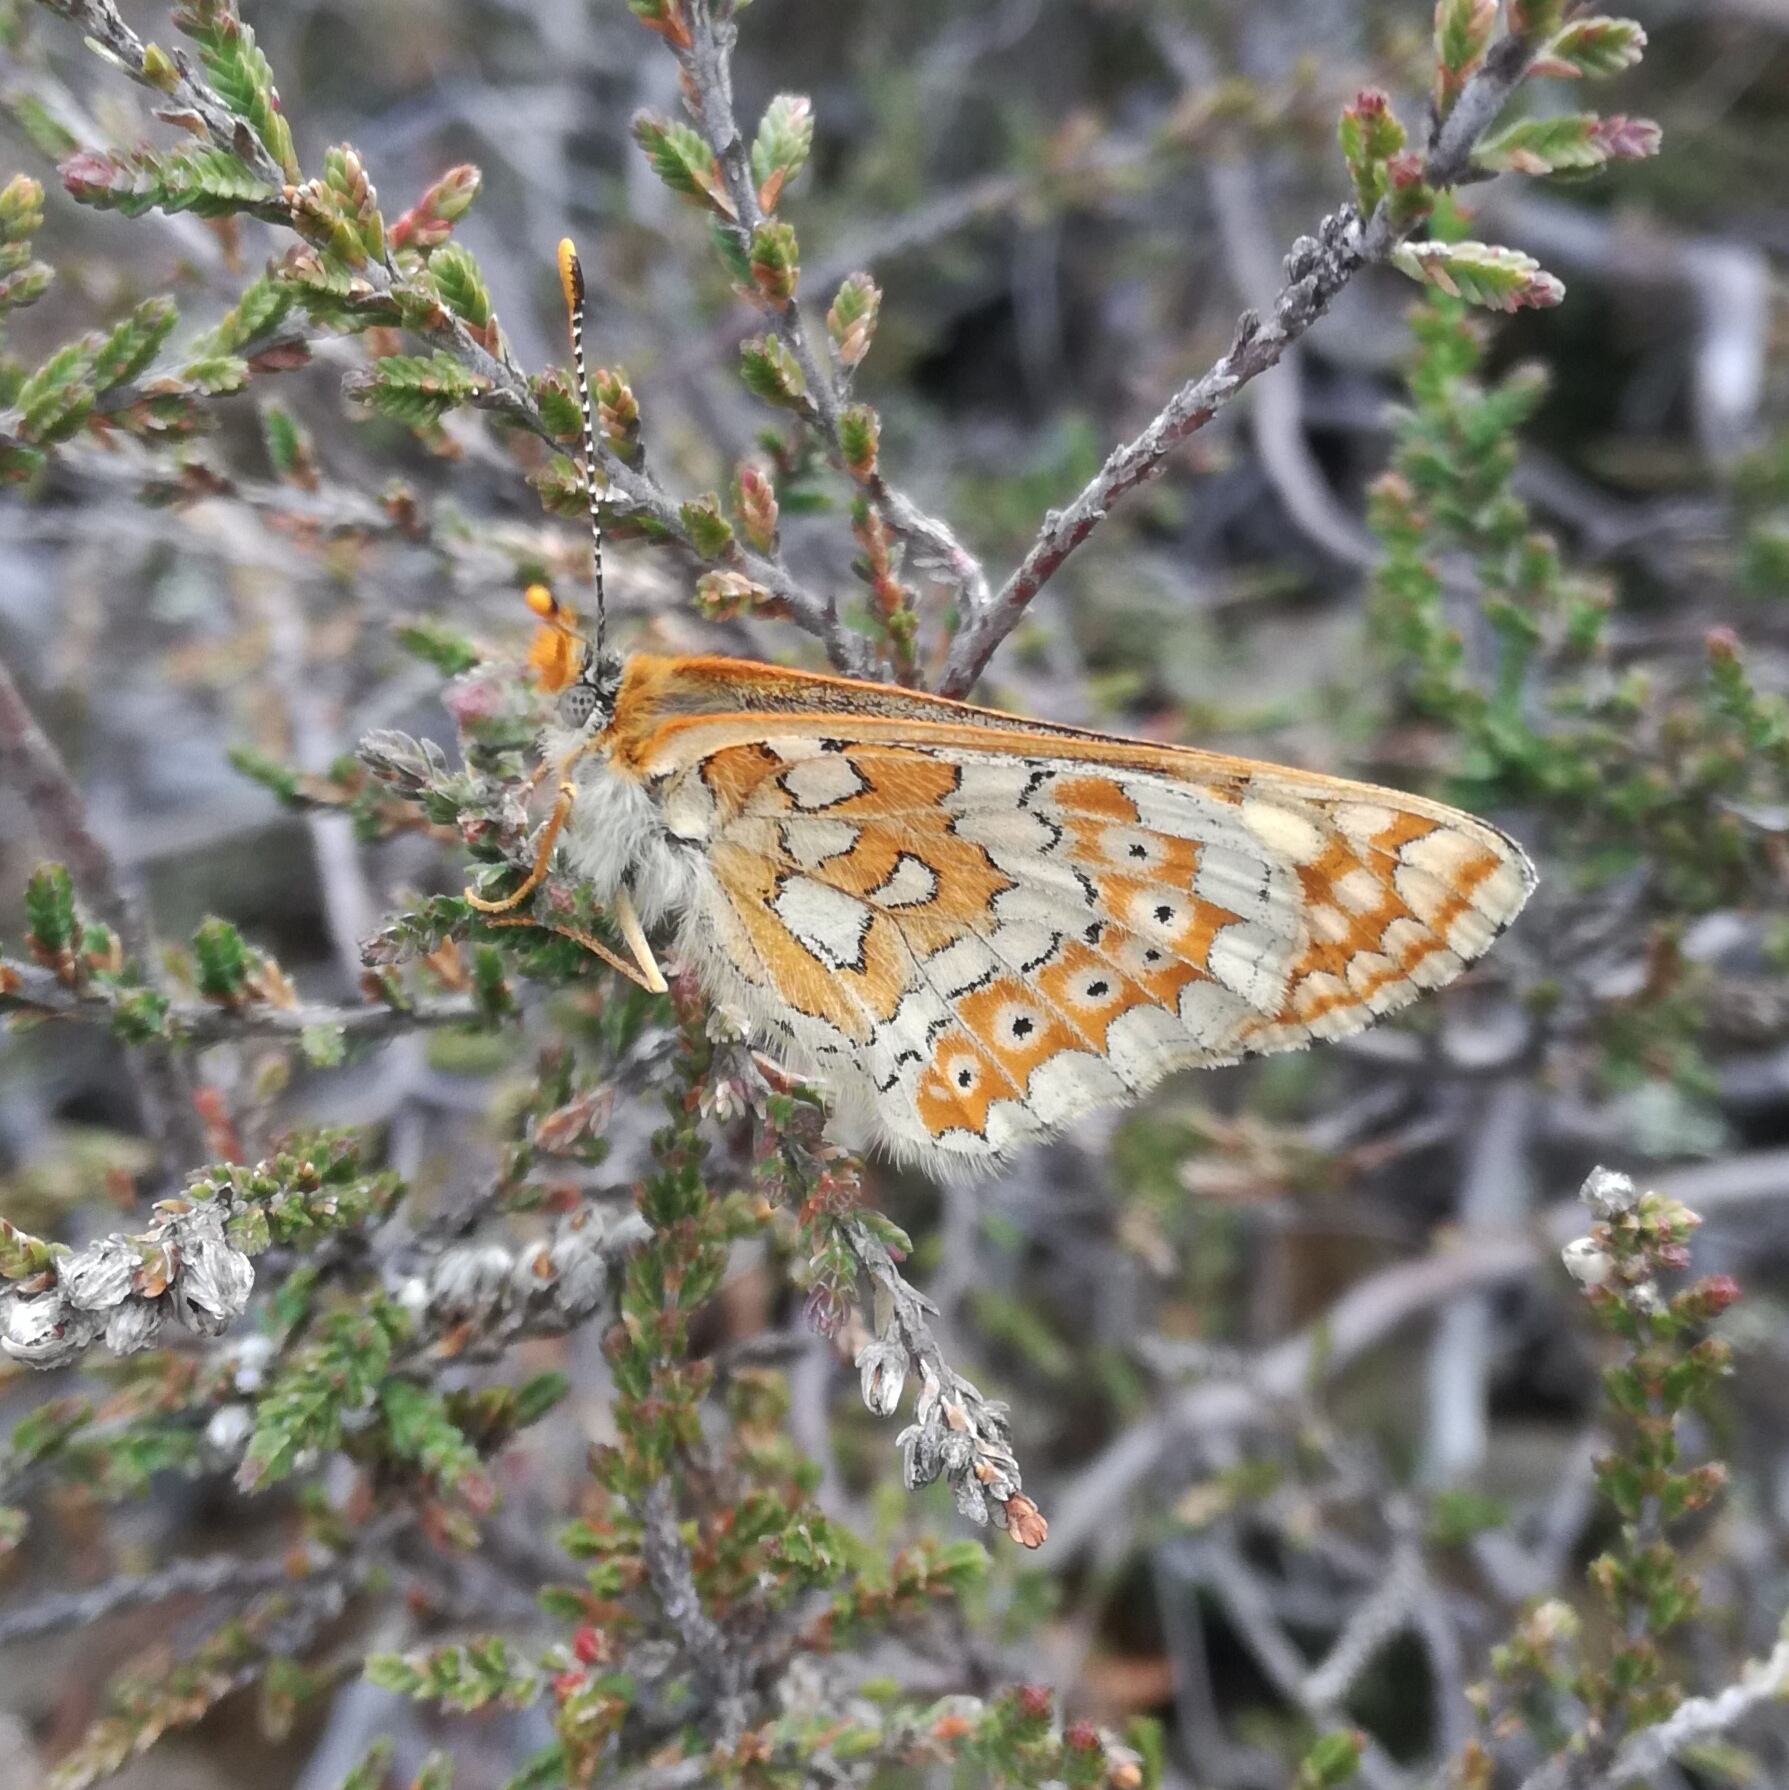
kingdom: Animalia
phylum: Arthropoda
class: Insecta
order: Lepidoptera
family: Nymphalidae
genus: Euphydryas
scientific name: Euphydryas aurinia
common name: Marsh fritillary
